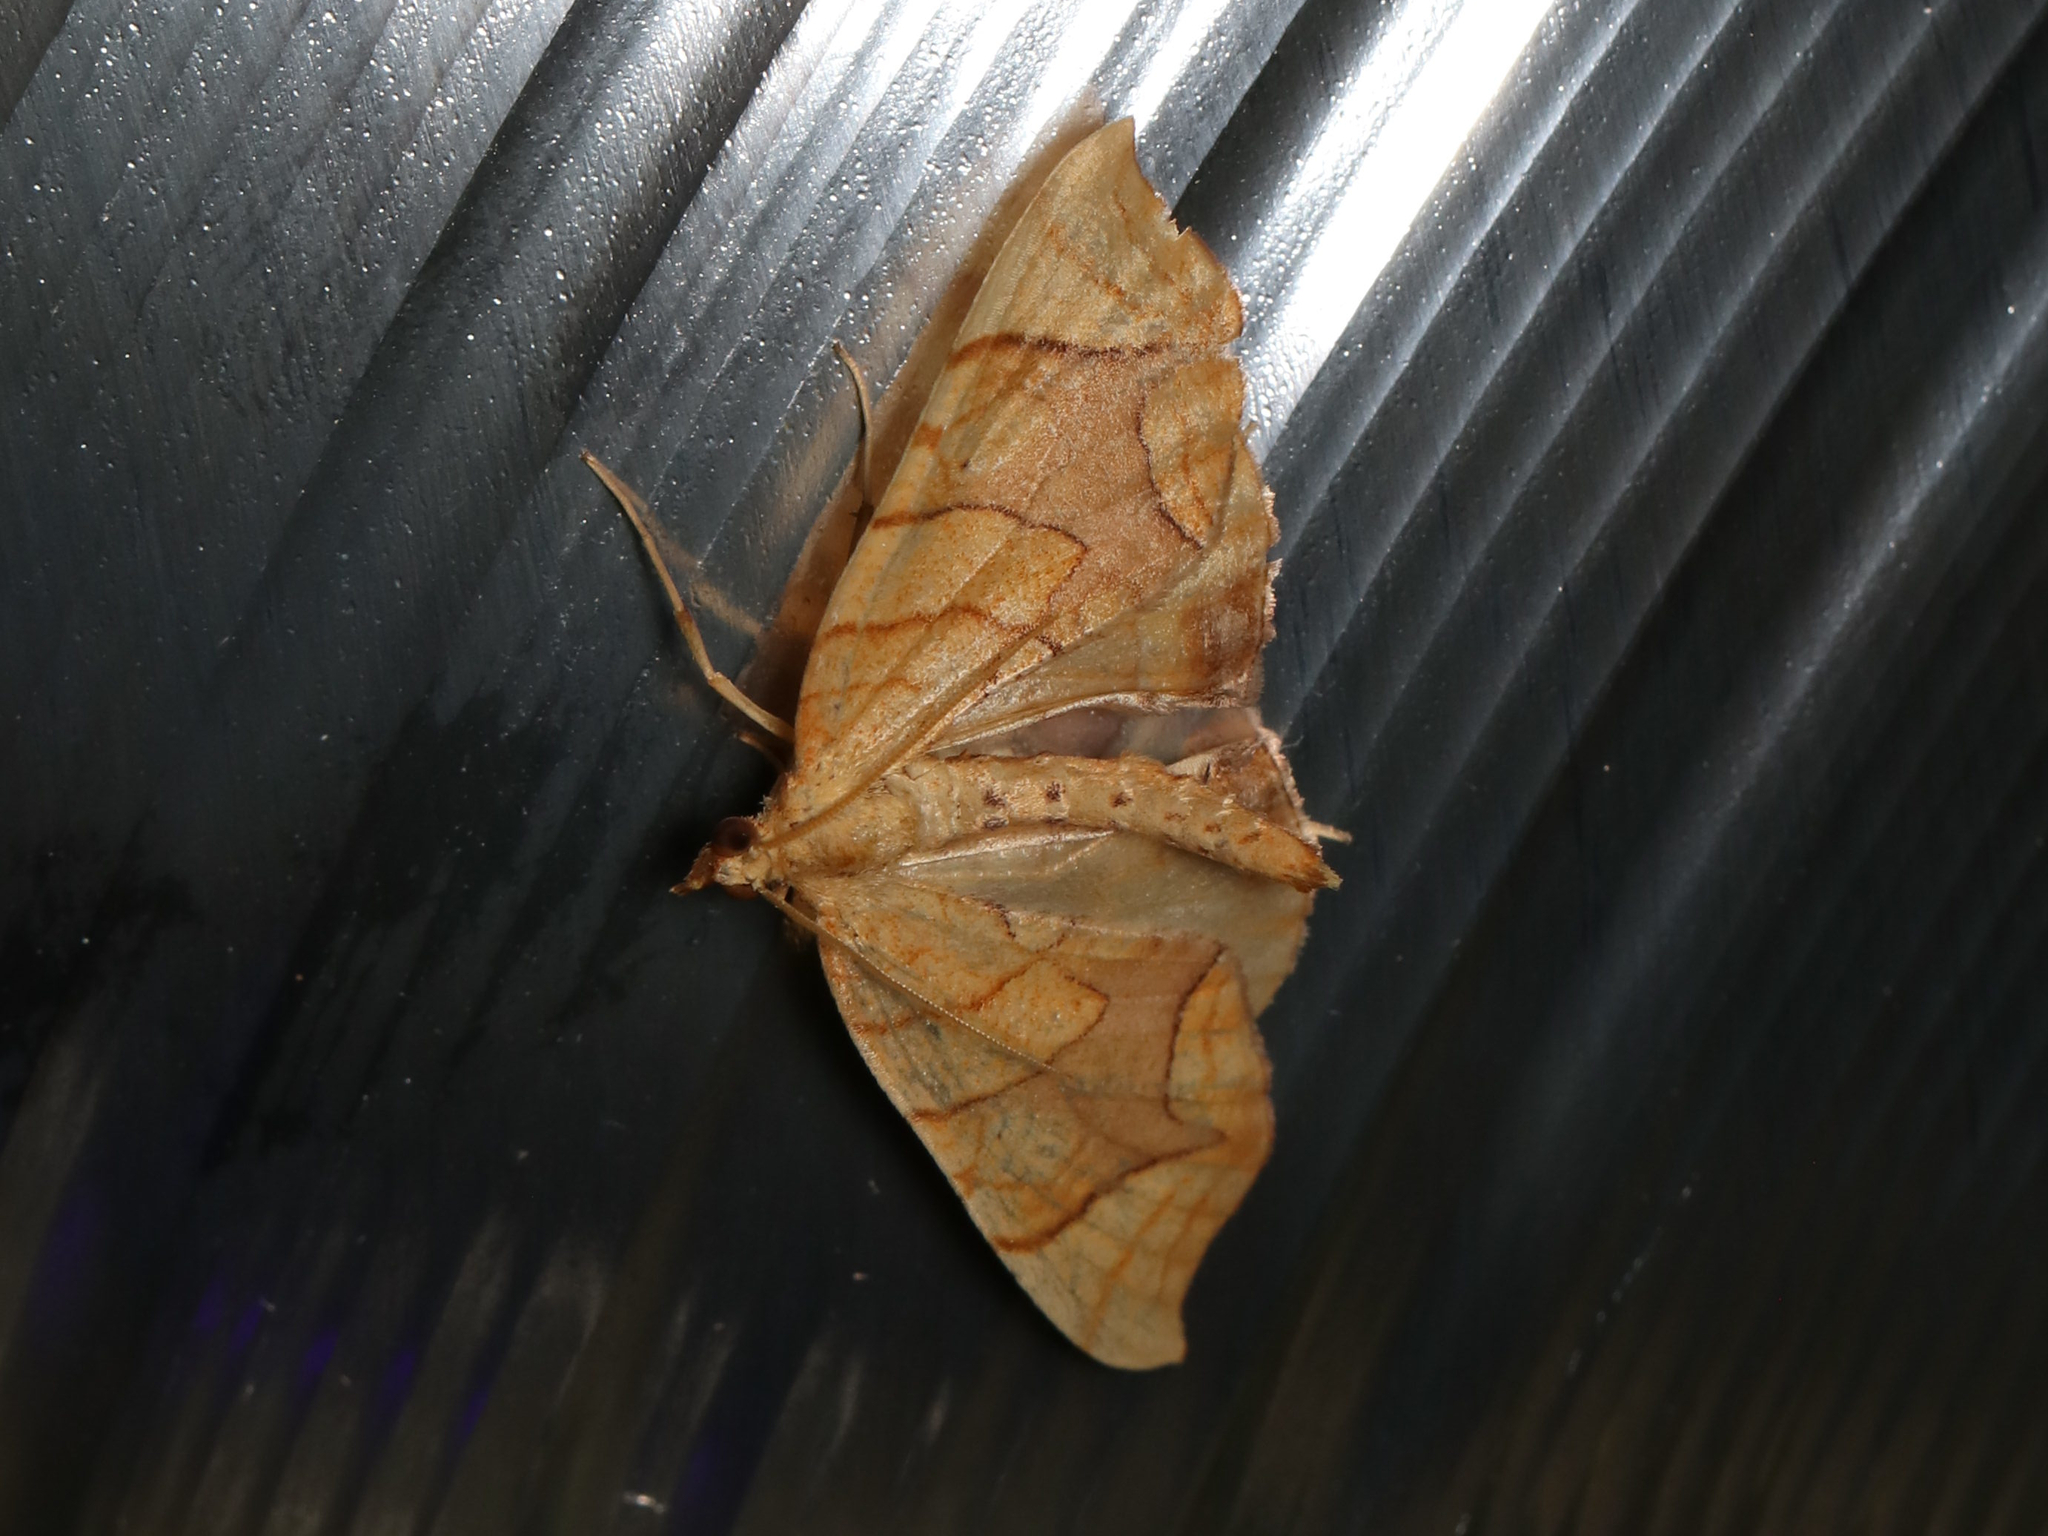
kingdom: Animalia
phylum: Arthropoda
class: Insecta
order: Lepidoptera
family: Geometridae
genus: Eulithis
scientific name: Eulithis diversilineata
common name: Grapevine looper
